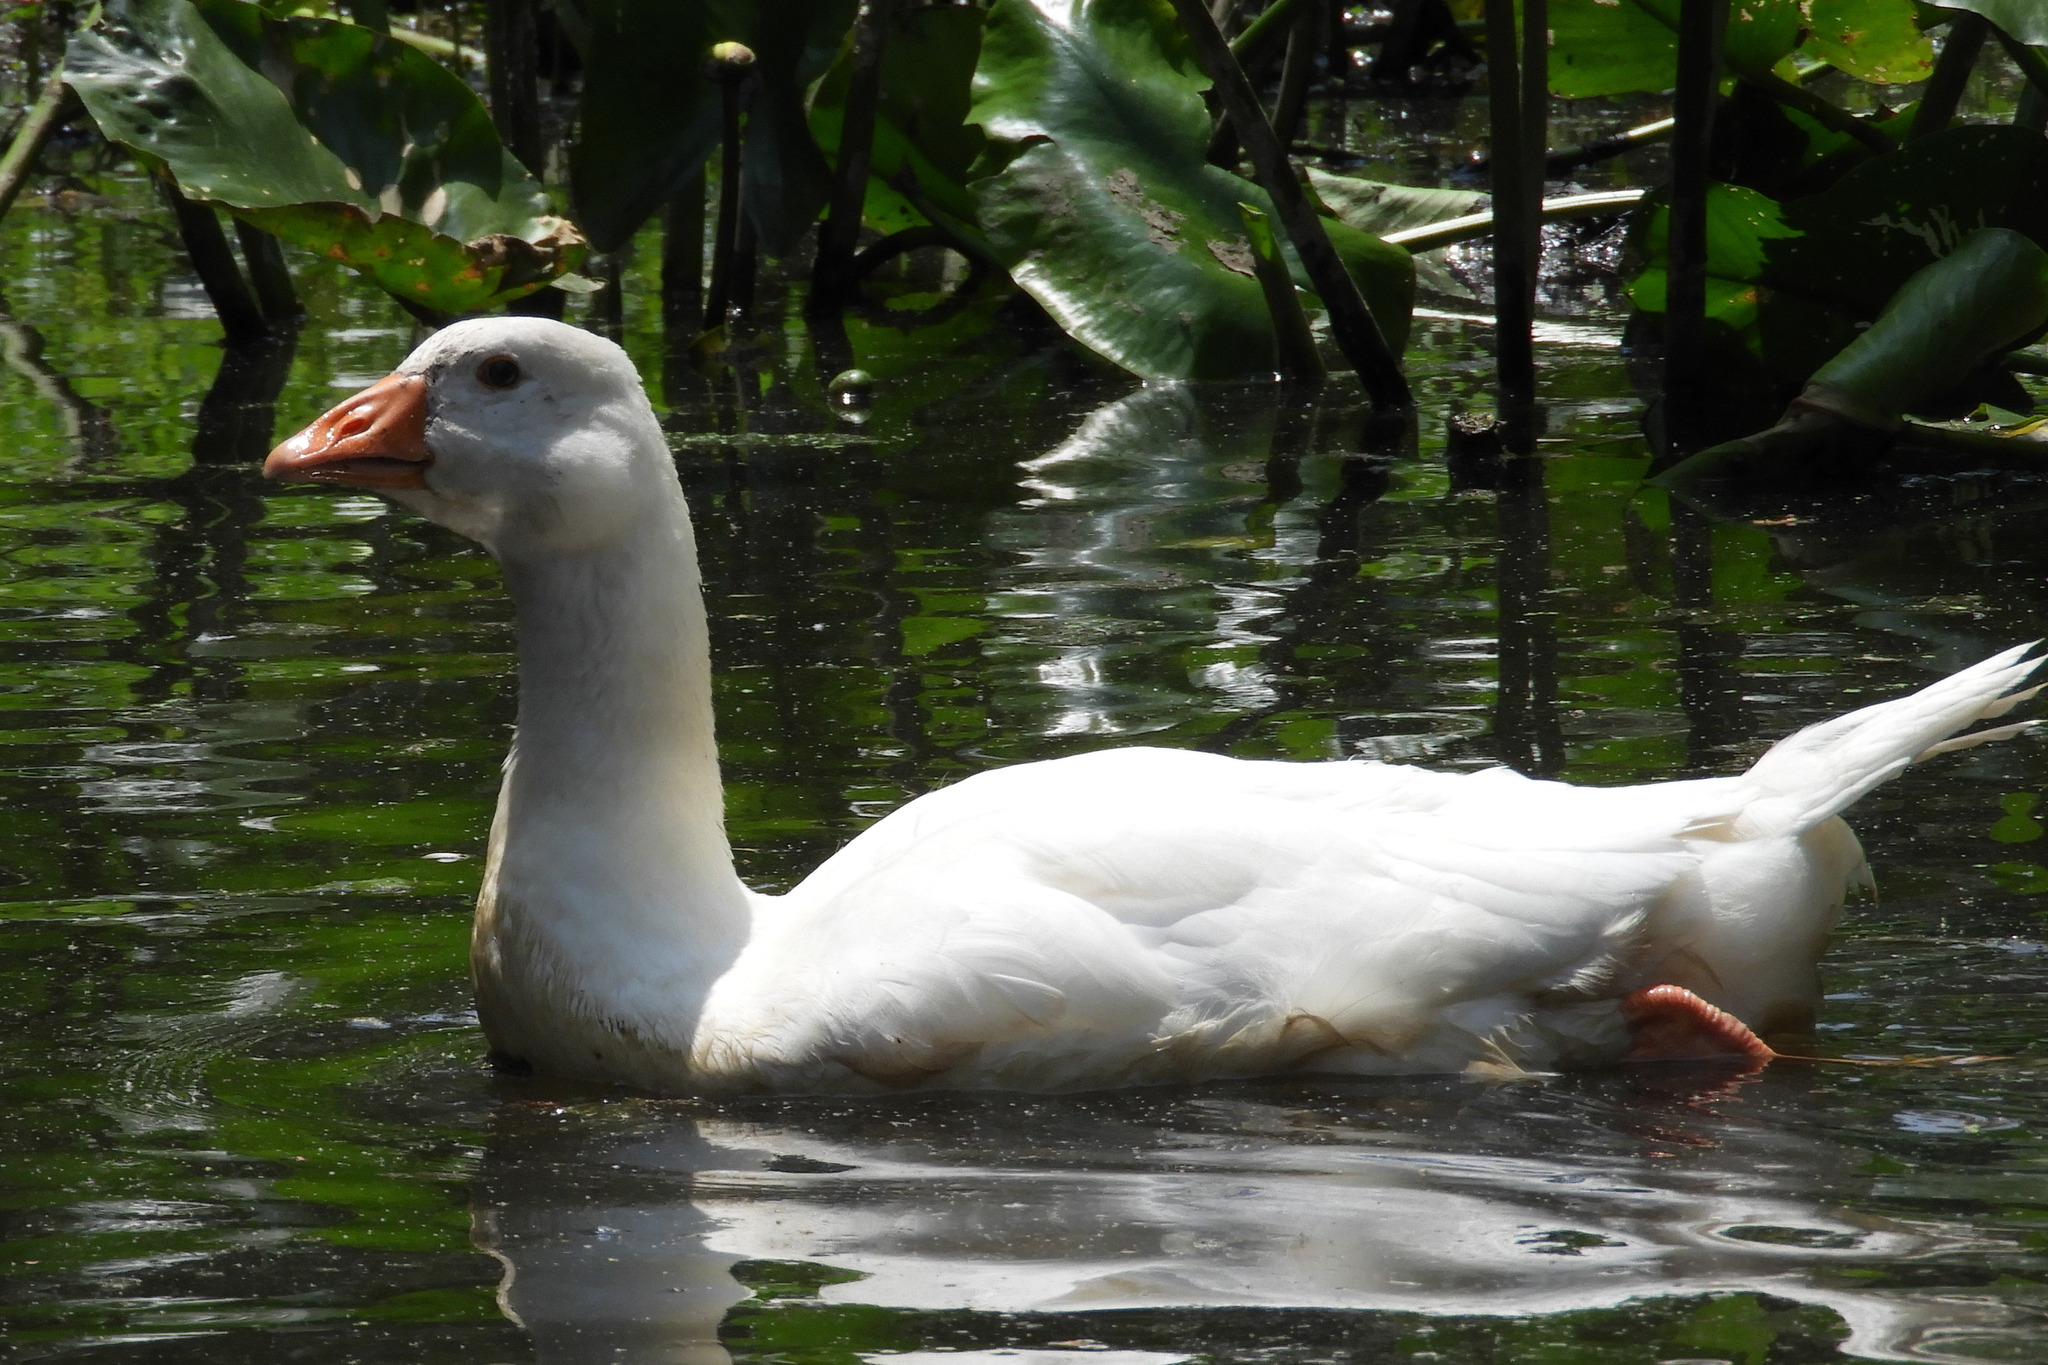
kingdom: Animalia
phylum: Chordata
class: Aves
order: Anseriformes
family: Anatidae
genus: Anser
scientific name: Anser anser
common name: Greylag goose
